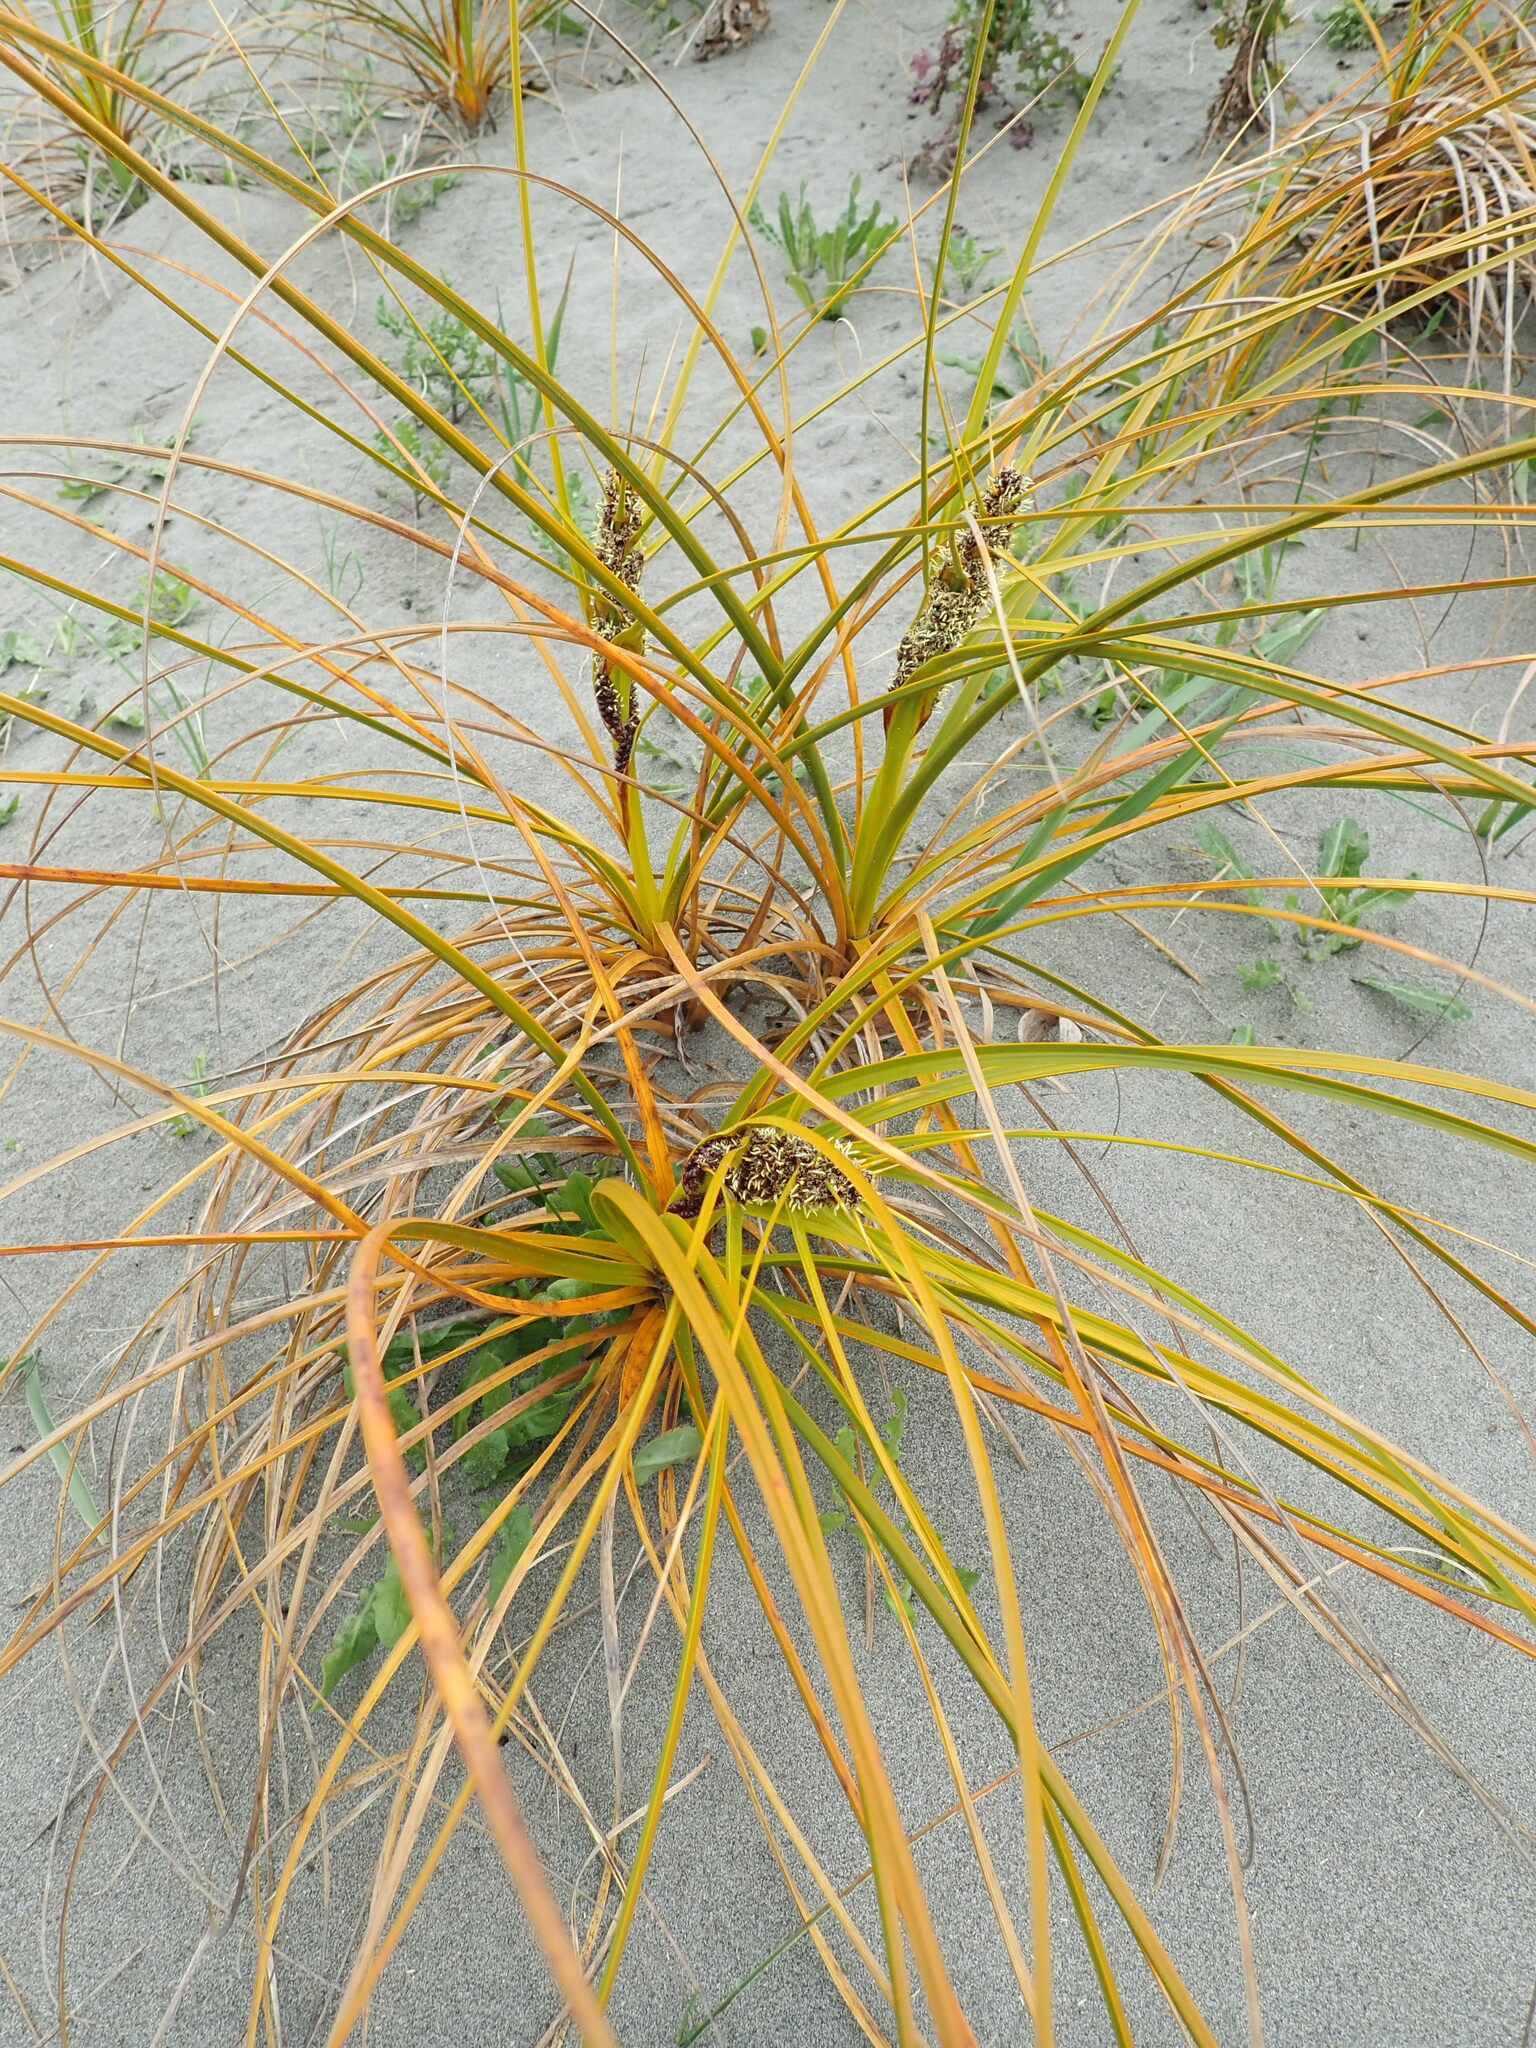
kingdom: Plantae
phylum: Tracheophyta
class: Liliopsida
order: Poales
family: Cyperaceae
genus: Ficinia
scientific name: Ficinia spiralis
